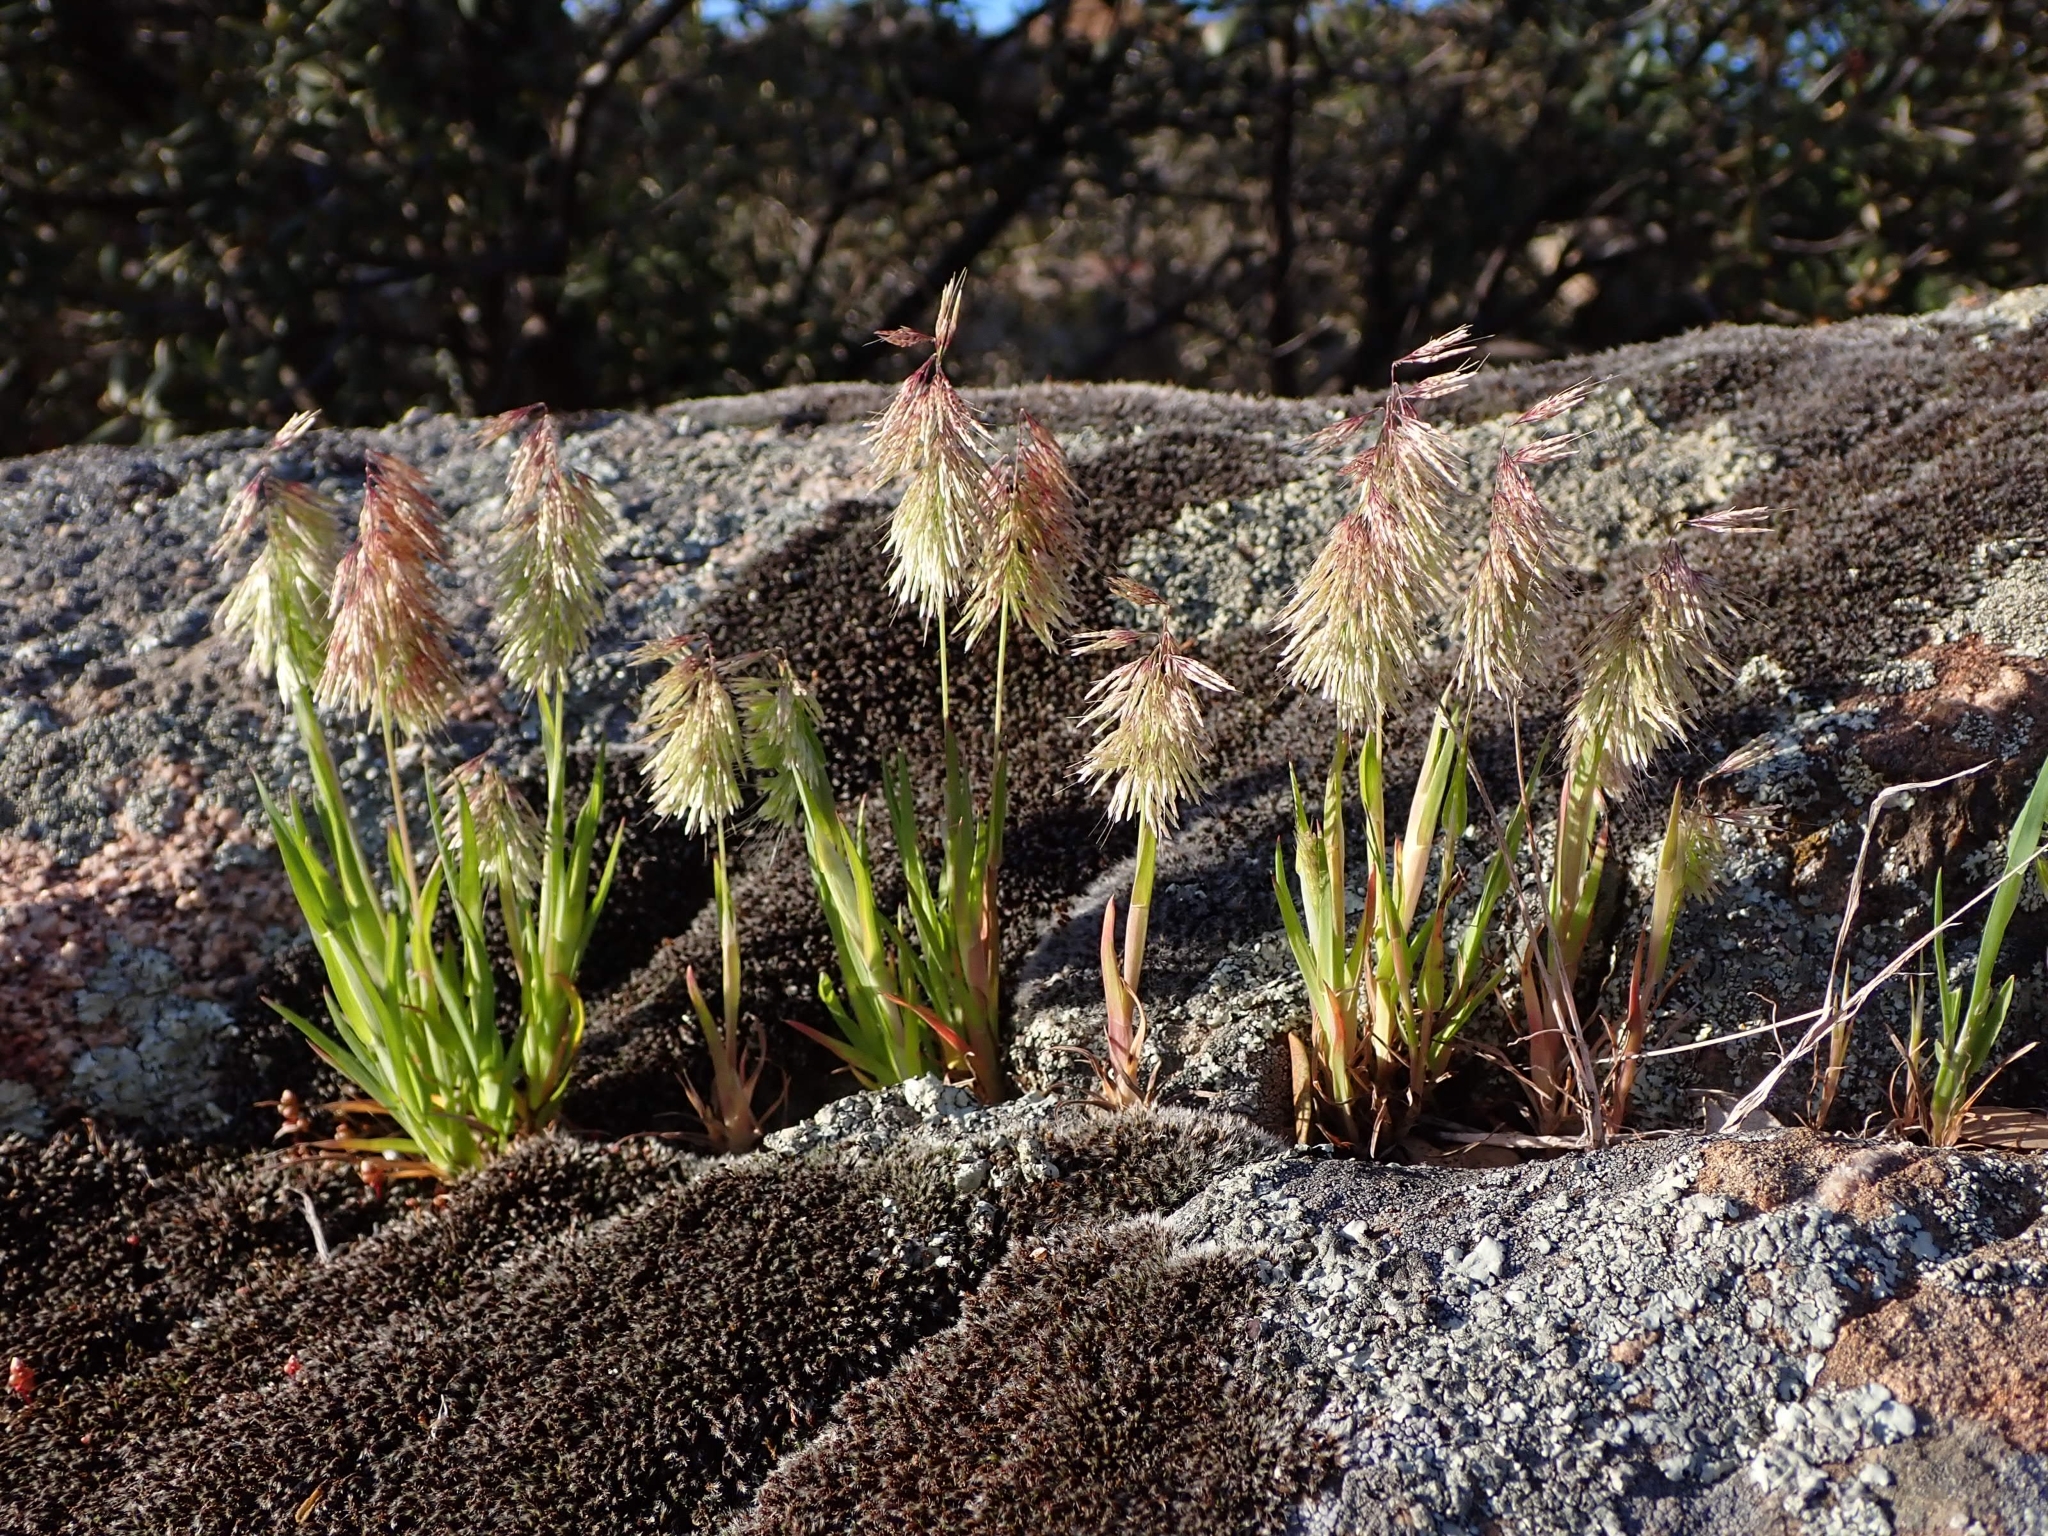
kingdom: Plantae
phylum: Tracheophyta
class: Liliopsida
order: Poales
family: Poaceae
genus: Lamarckia
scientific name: Lamarckia aurea
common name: Golden dog's-tail
